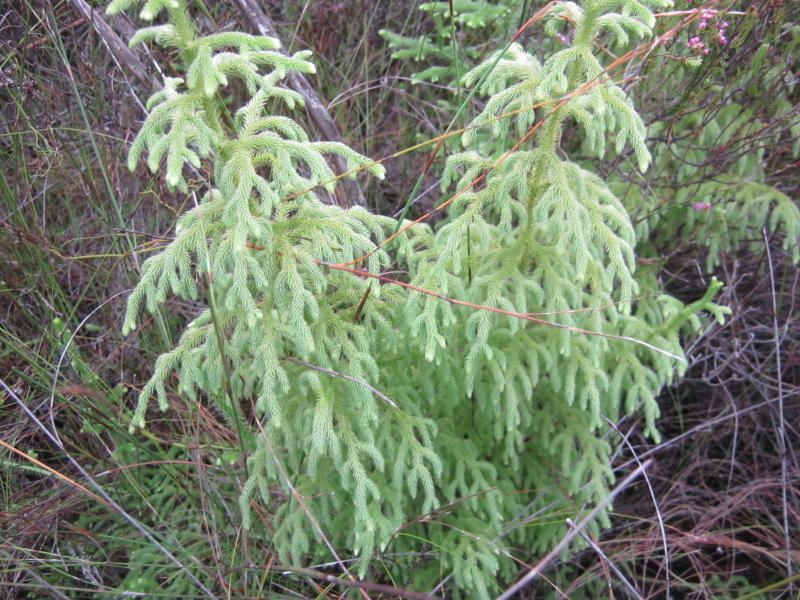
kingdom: Plantae
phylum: Tracheophyta
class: Lycopodiopsida
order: Lycopodiales
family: Lycopodiaceae
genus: Palhinhaea
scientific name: Palhinhaea cernua
